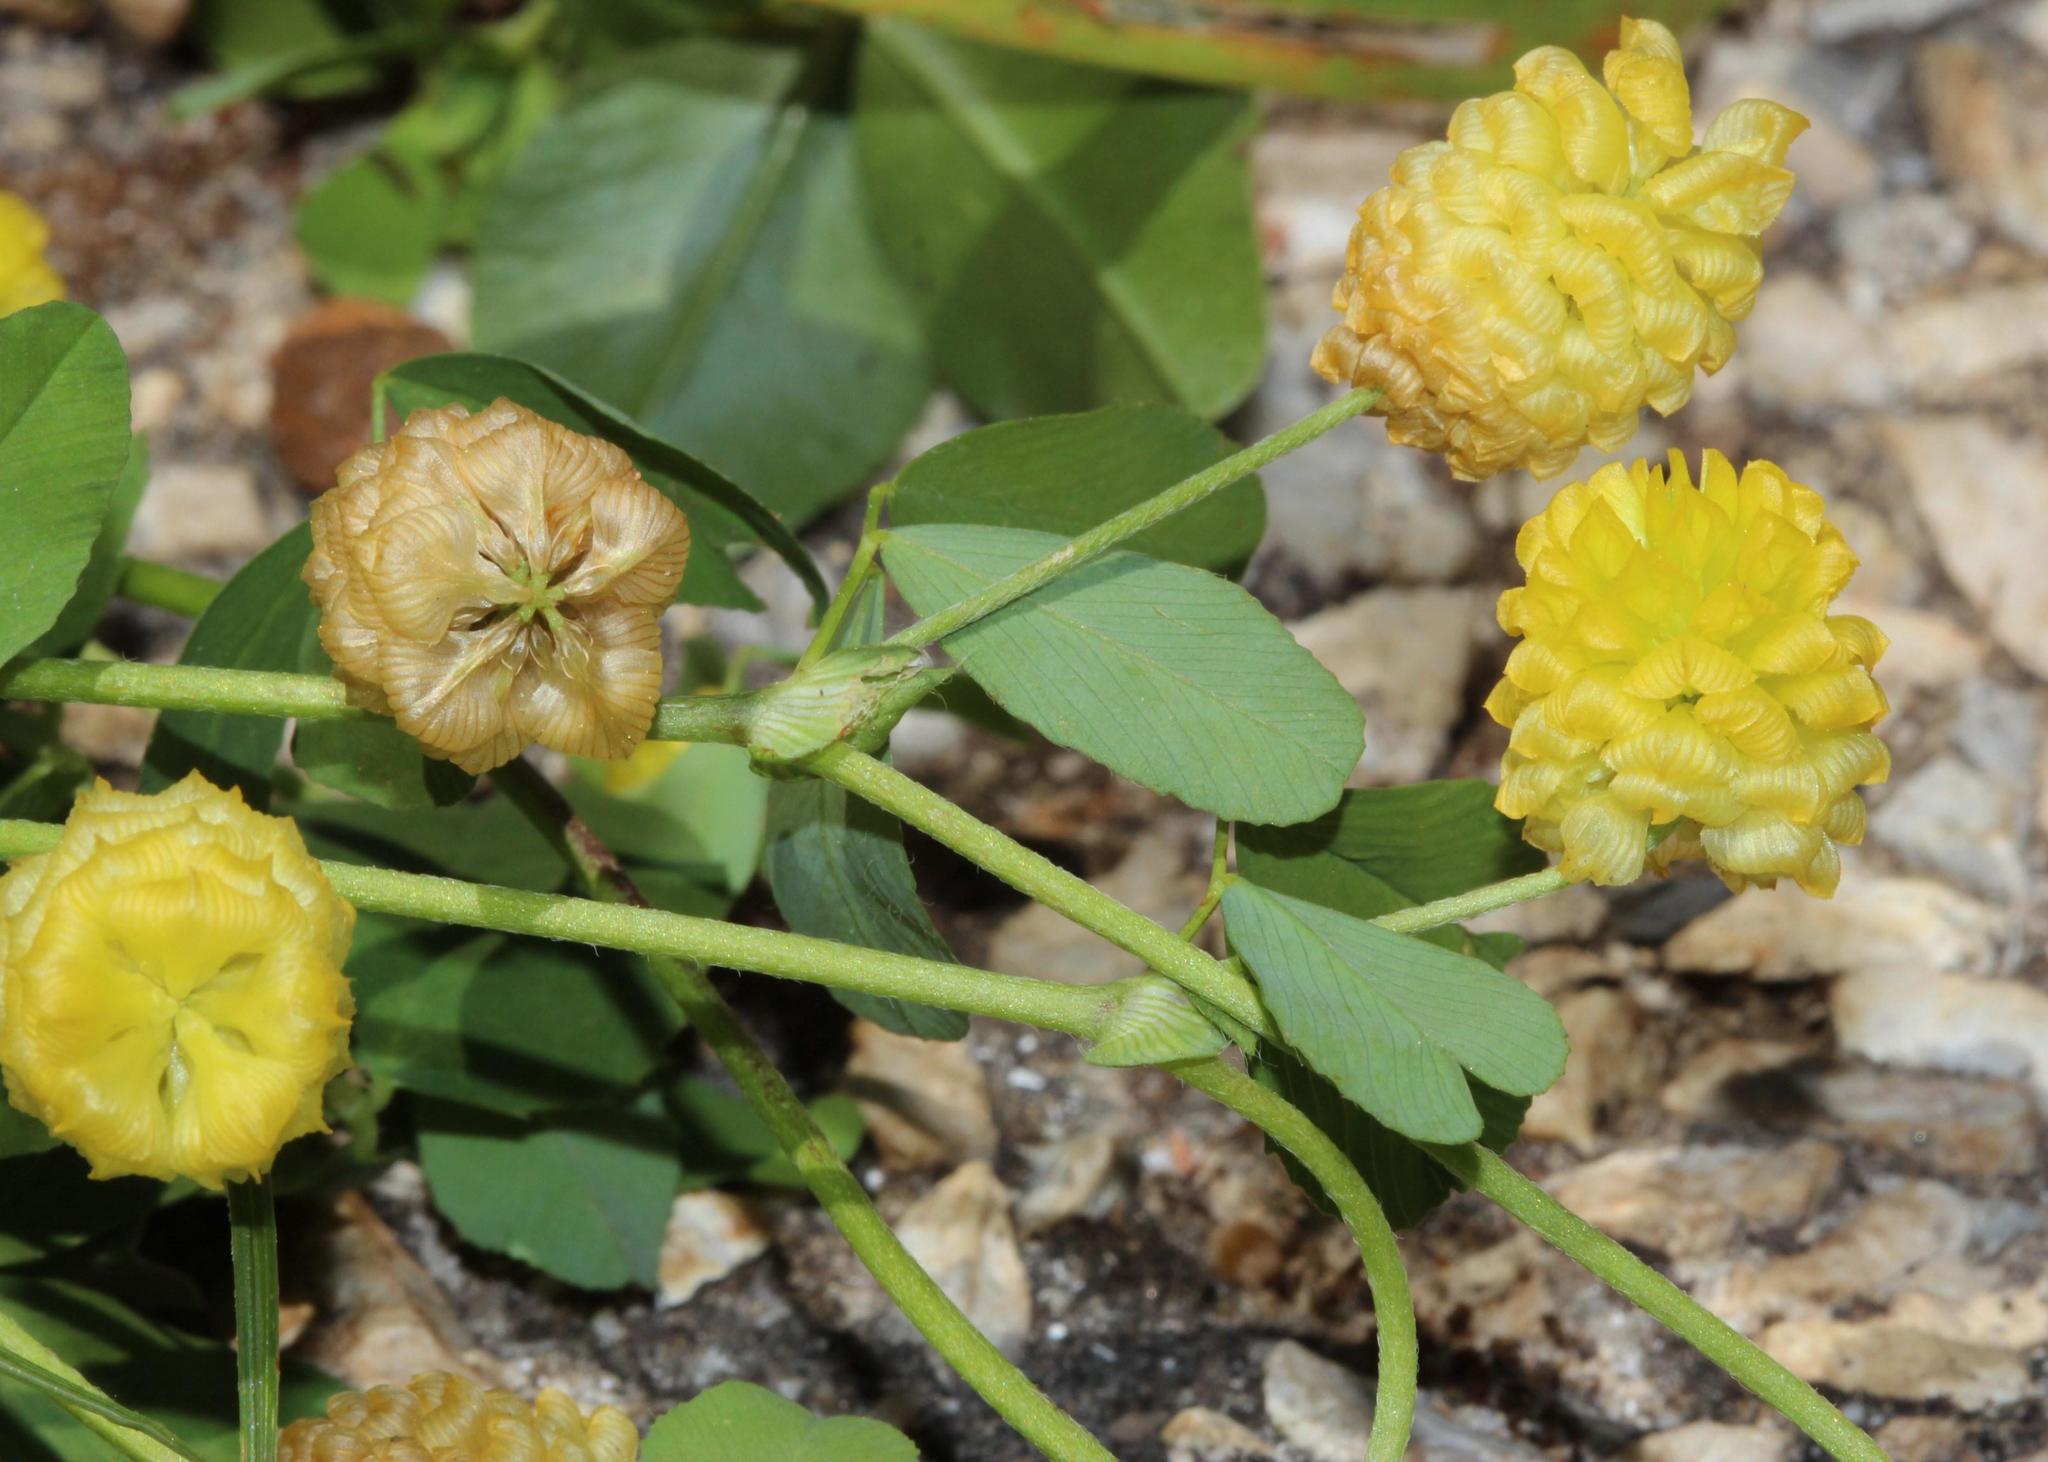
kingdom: Plantae
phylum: Tracheophyta
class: Magnoliopsida
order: Fabales
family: Fabaceae
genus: Trifolium
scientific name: Trifolium campestre
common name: Field clover
